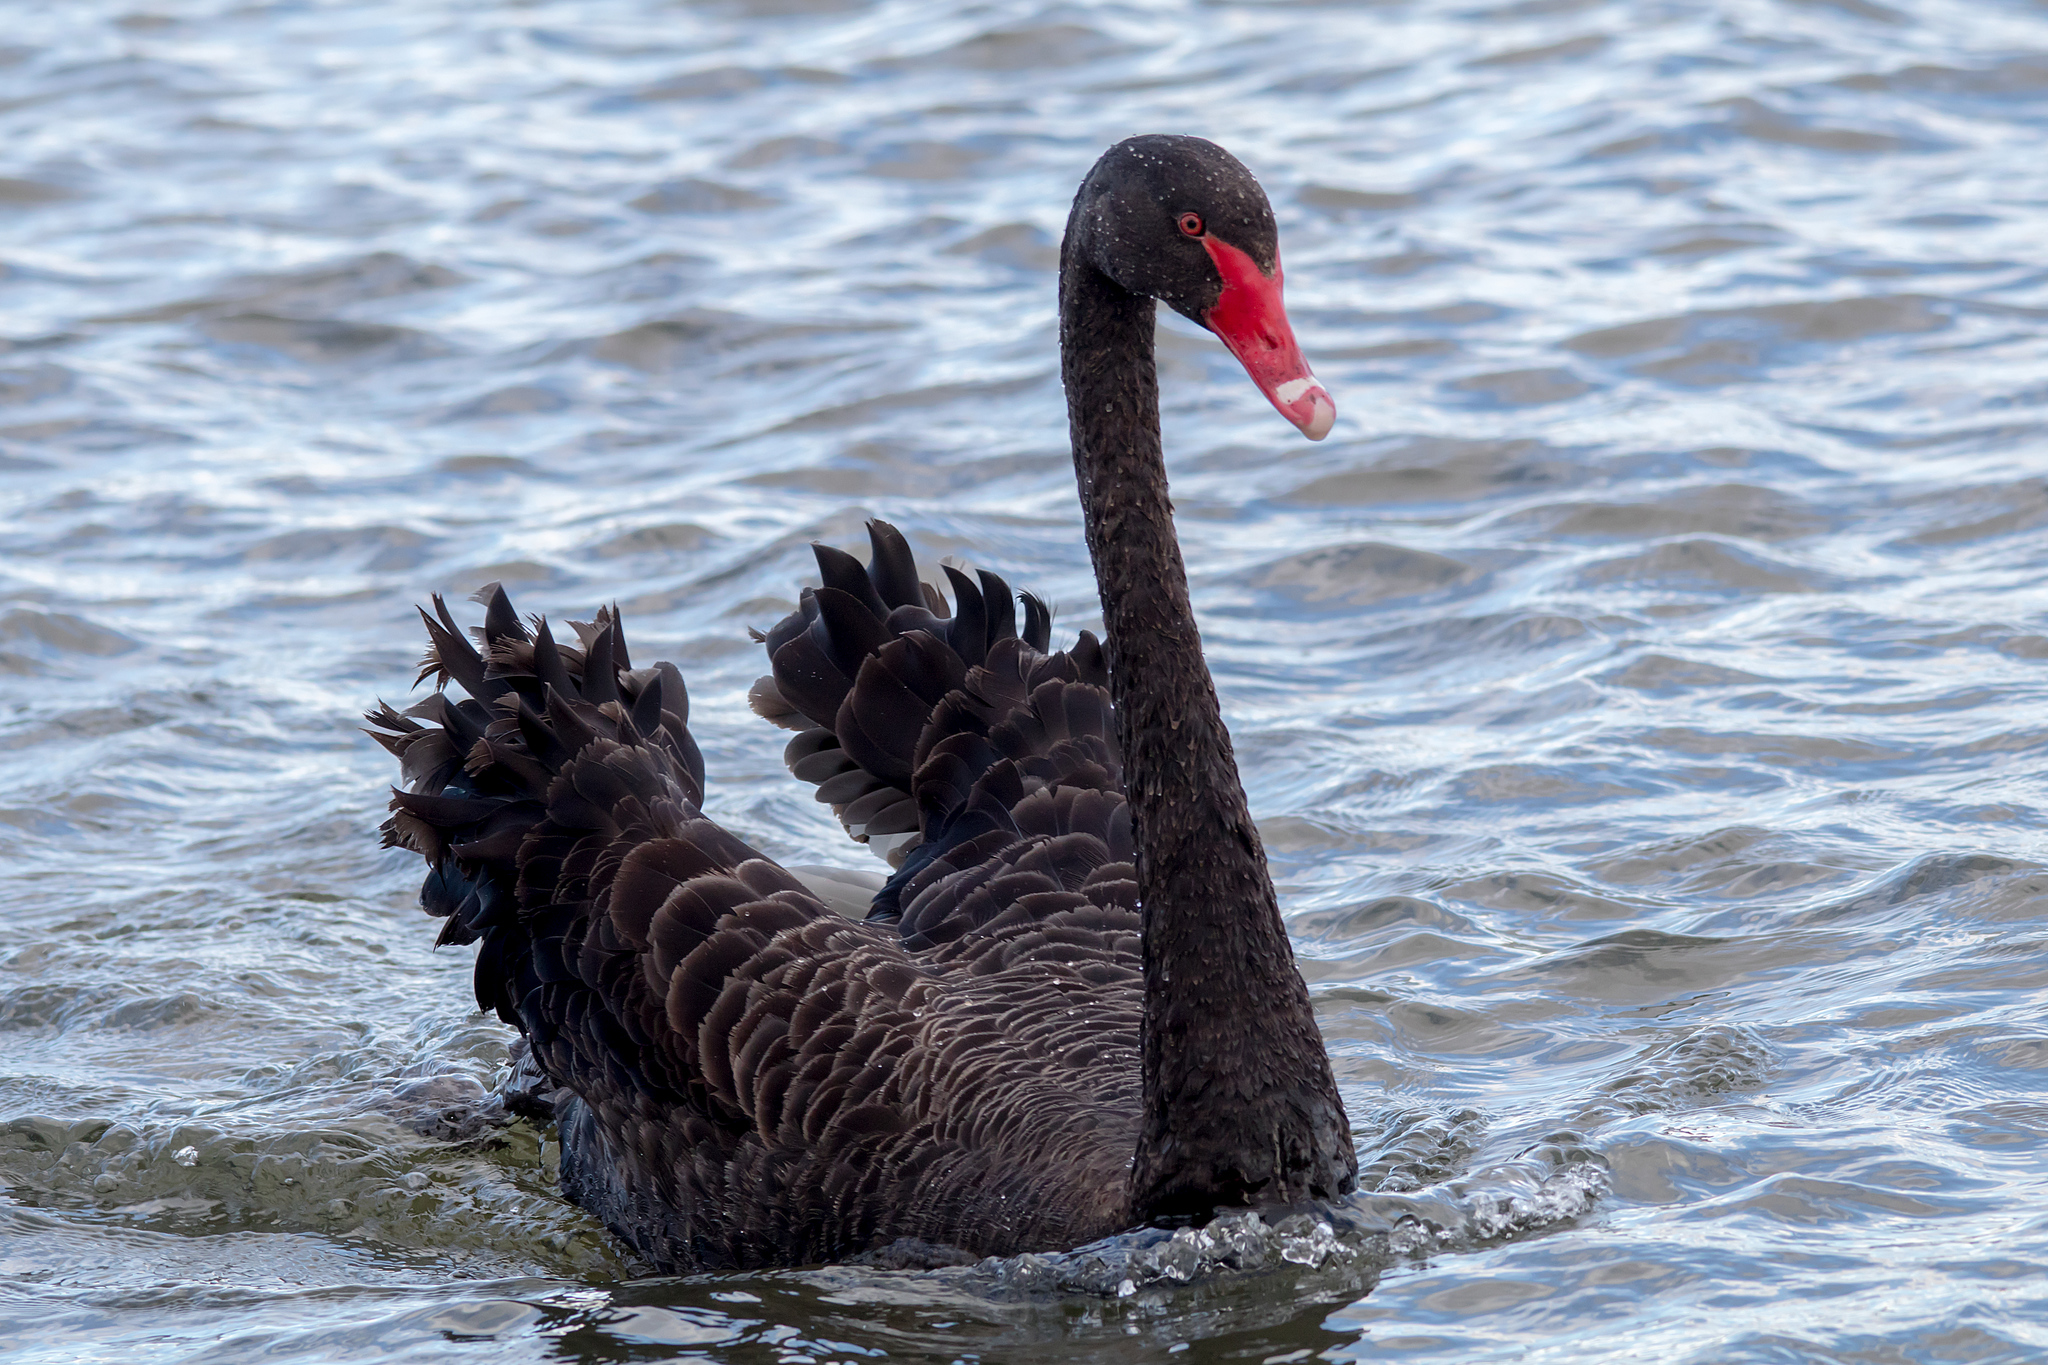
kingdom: Animalia
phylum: Chordata
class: Aves
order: Anseriformes
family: Anatidae
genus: Cygnus
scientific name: Cygnus atratus
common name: Black swan
